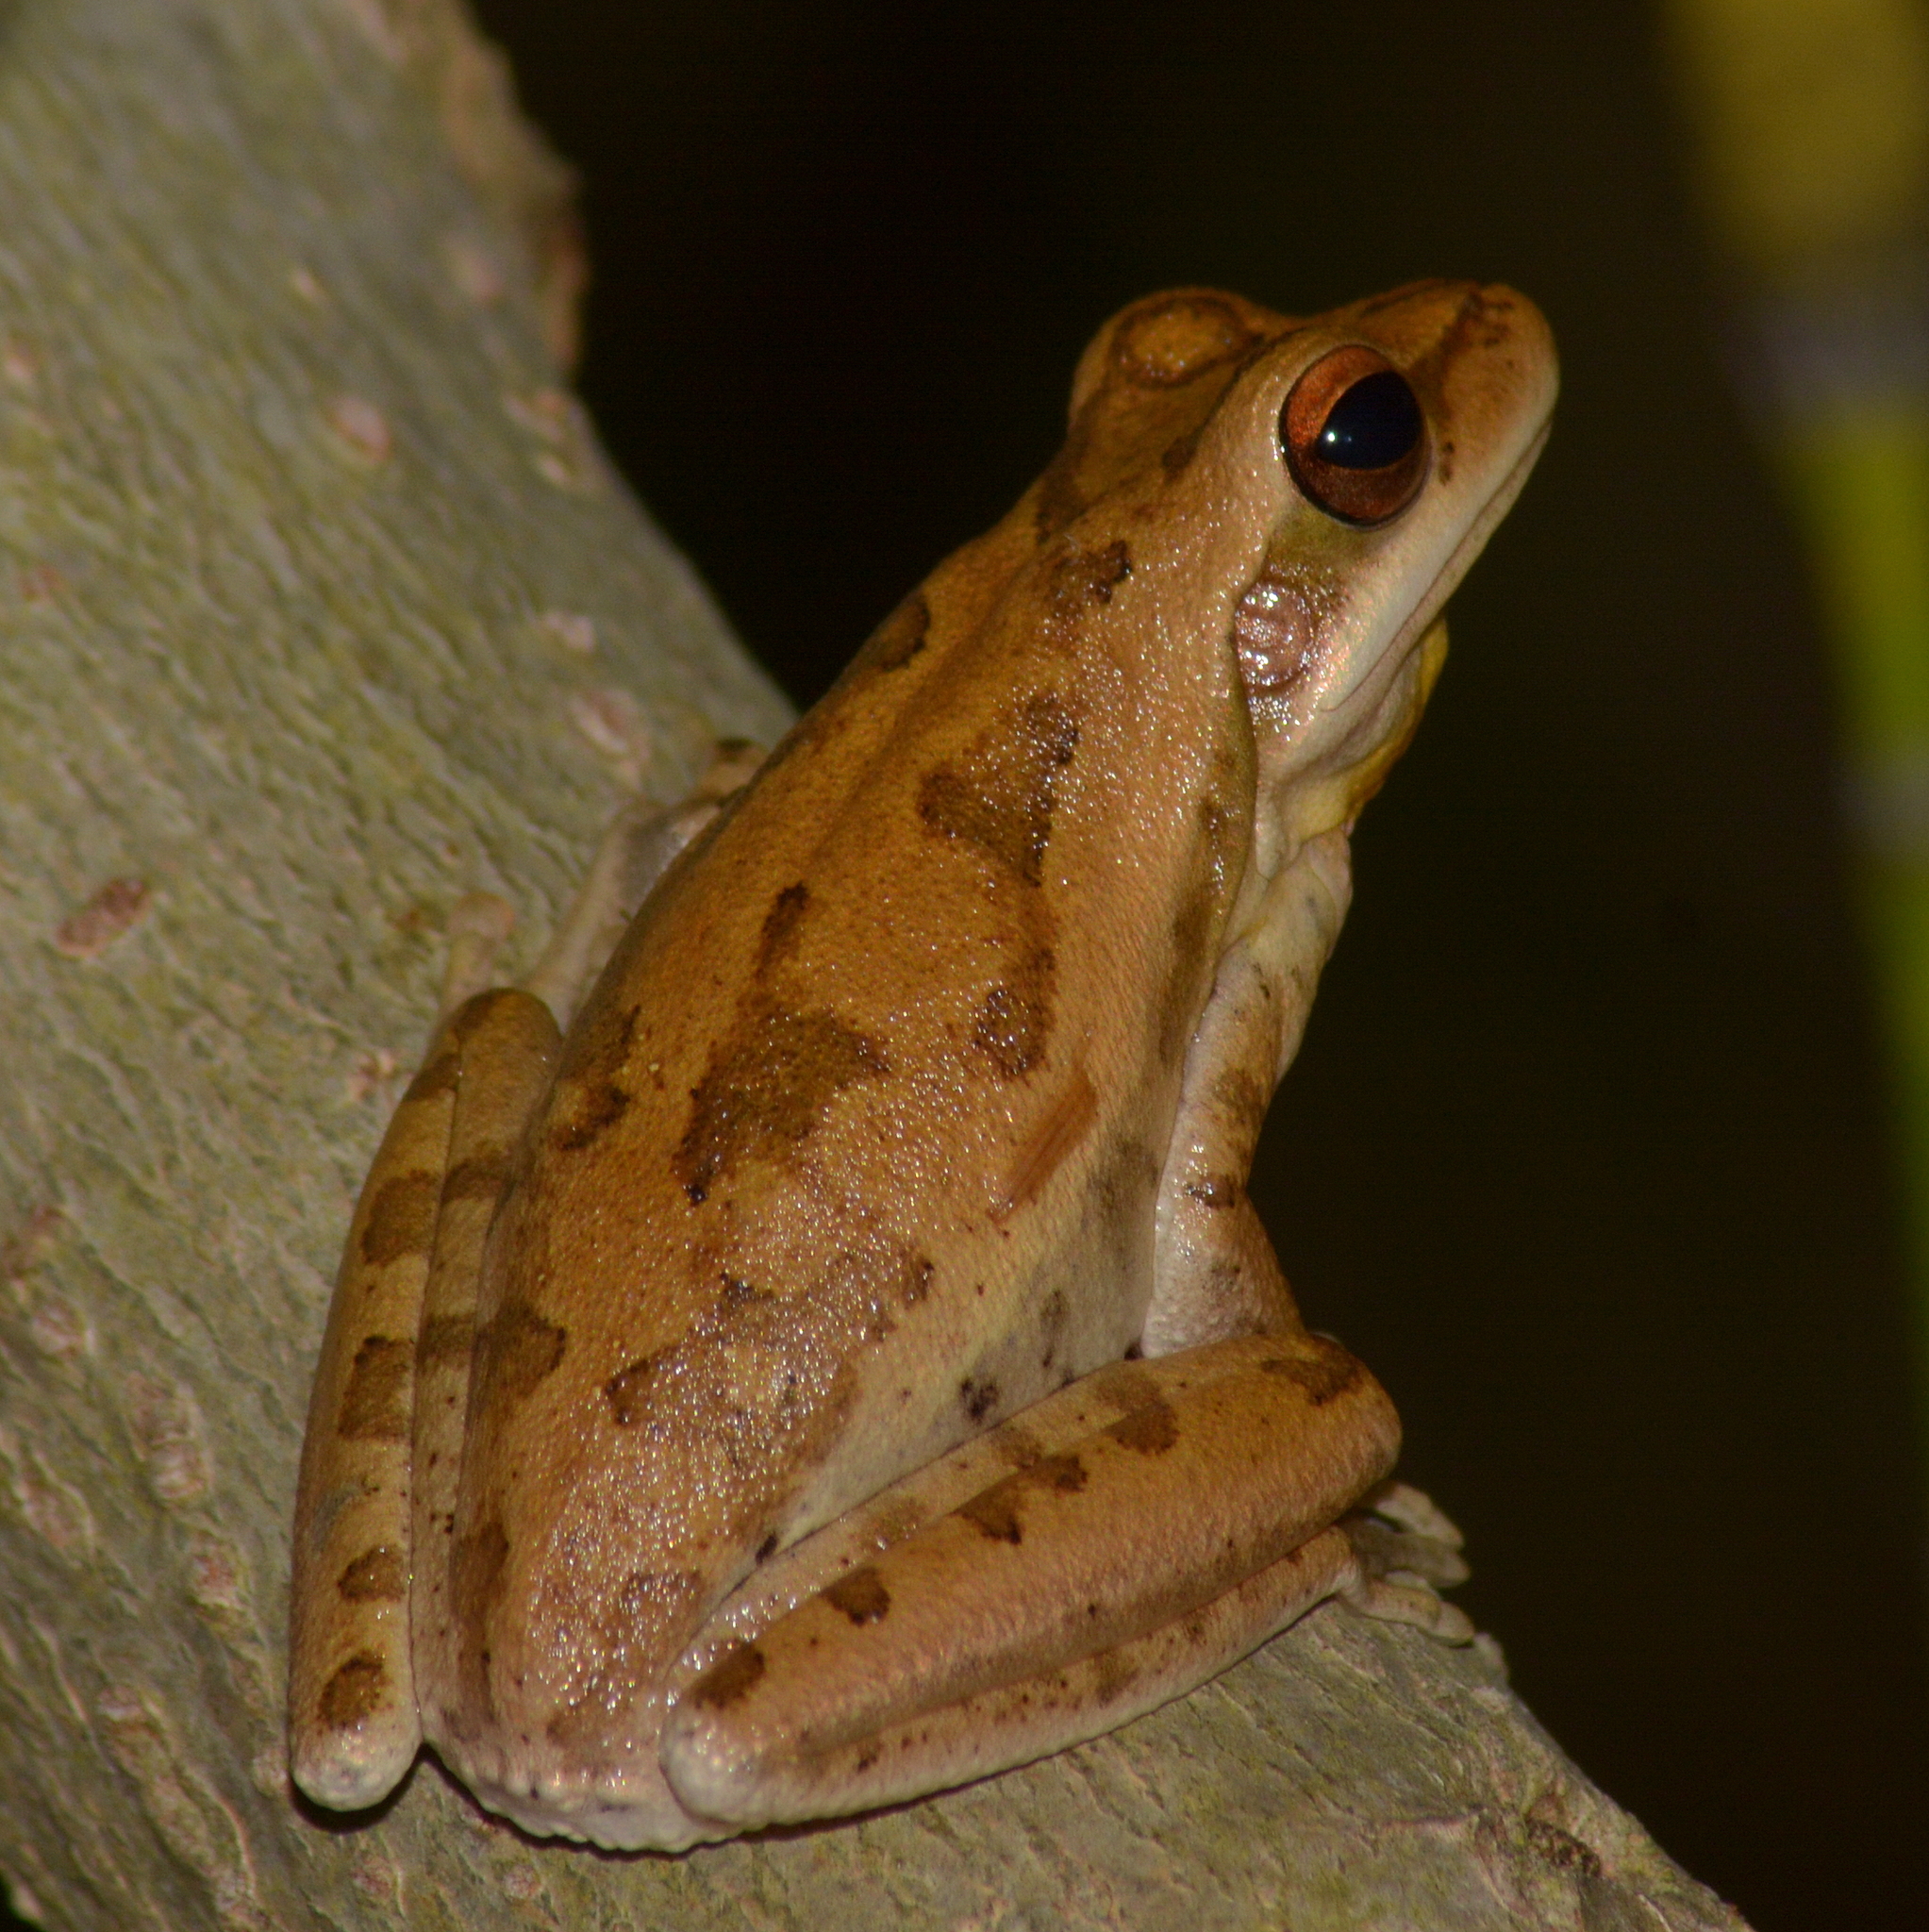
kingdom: Animalia
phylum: Chordata
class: Amphibia
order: Anura
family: Hylidae
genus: Boana
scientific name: Boana pulchella
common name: Montevideo treefrog
